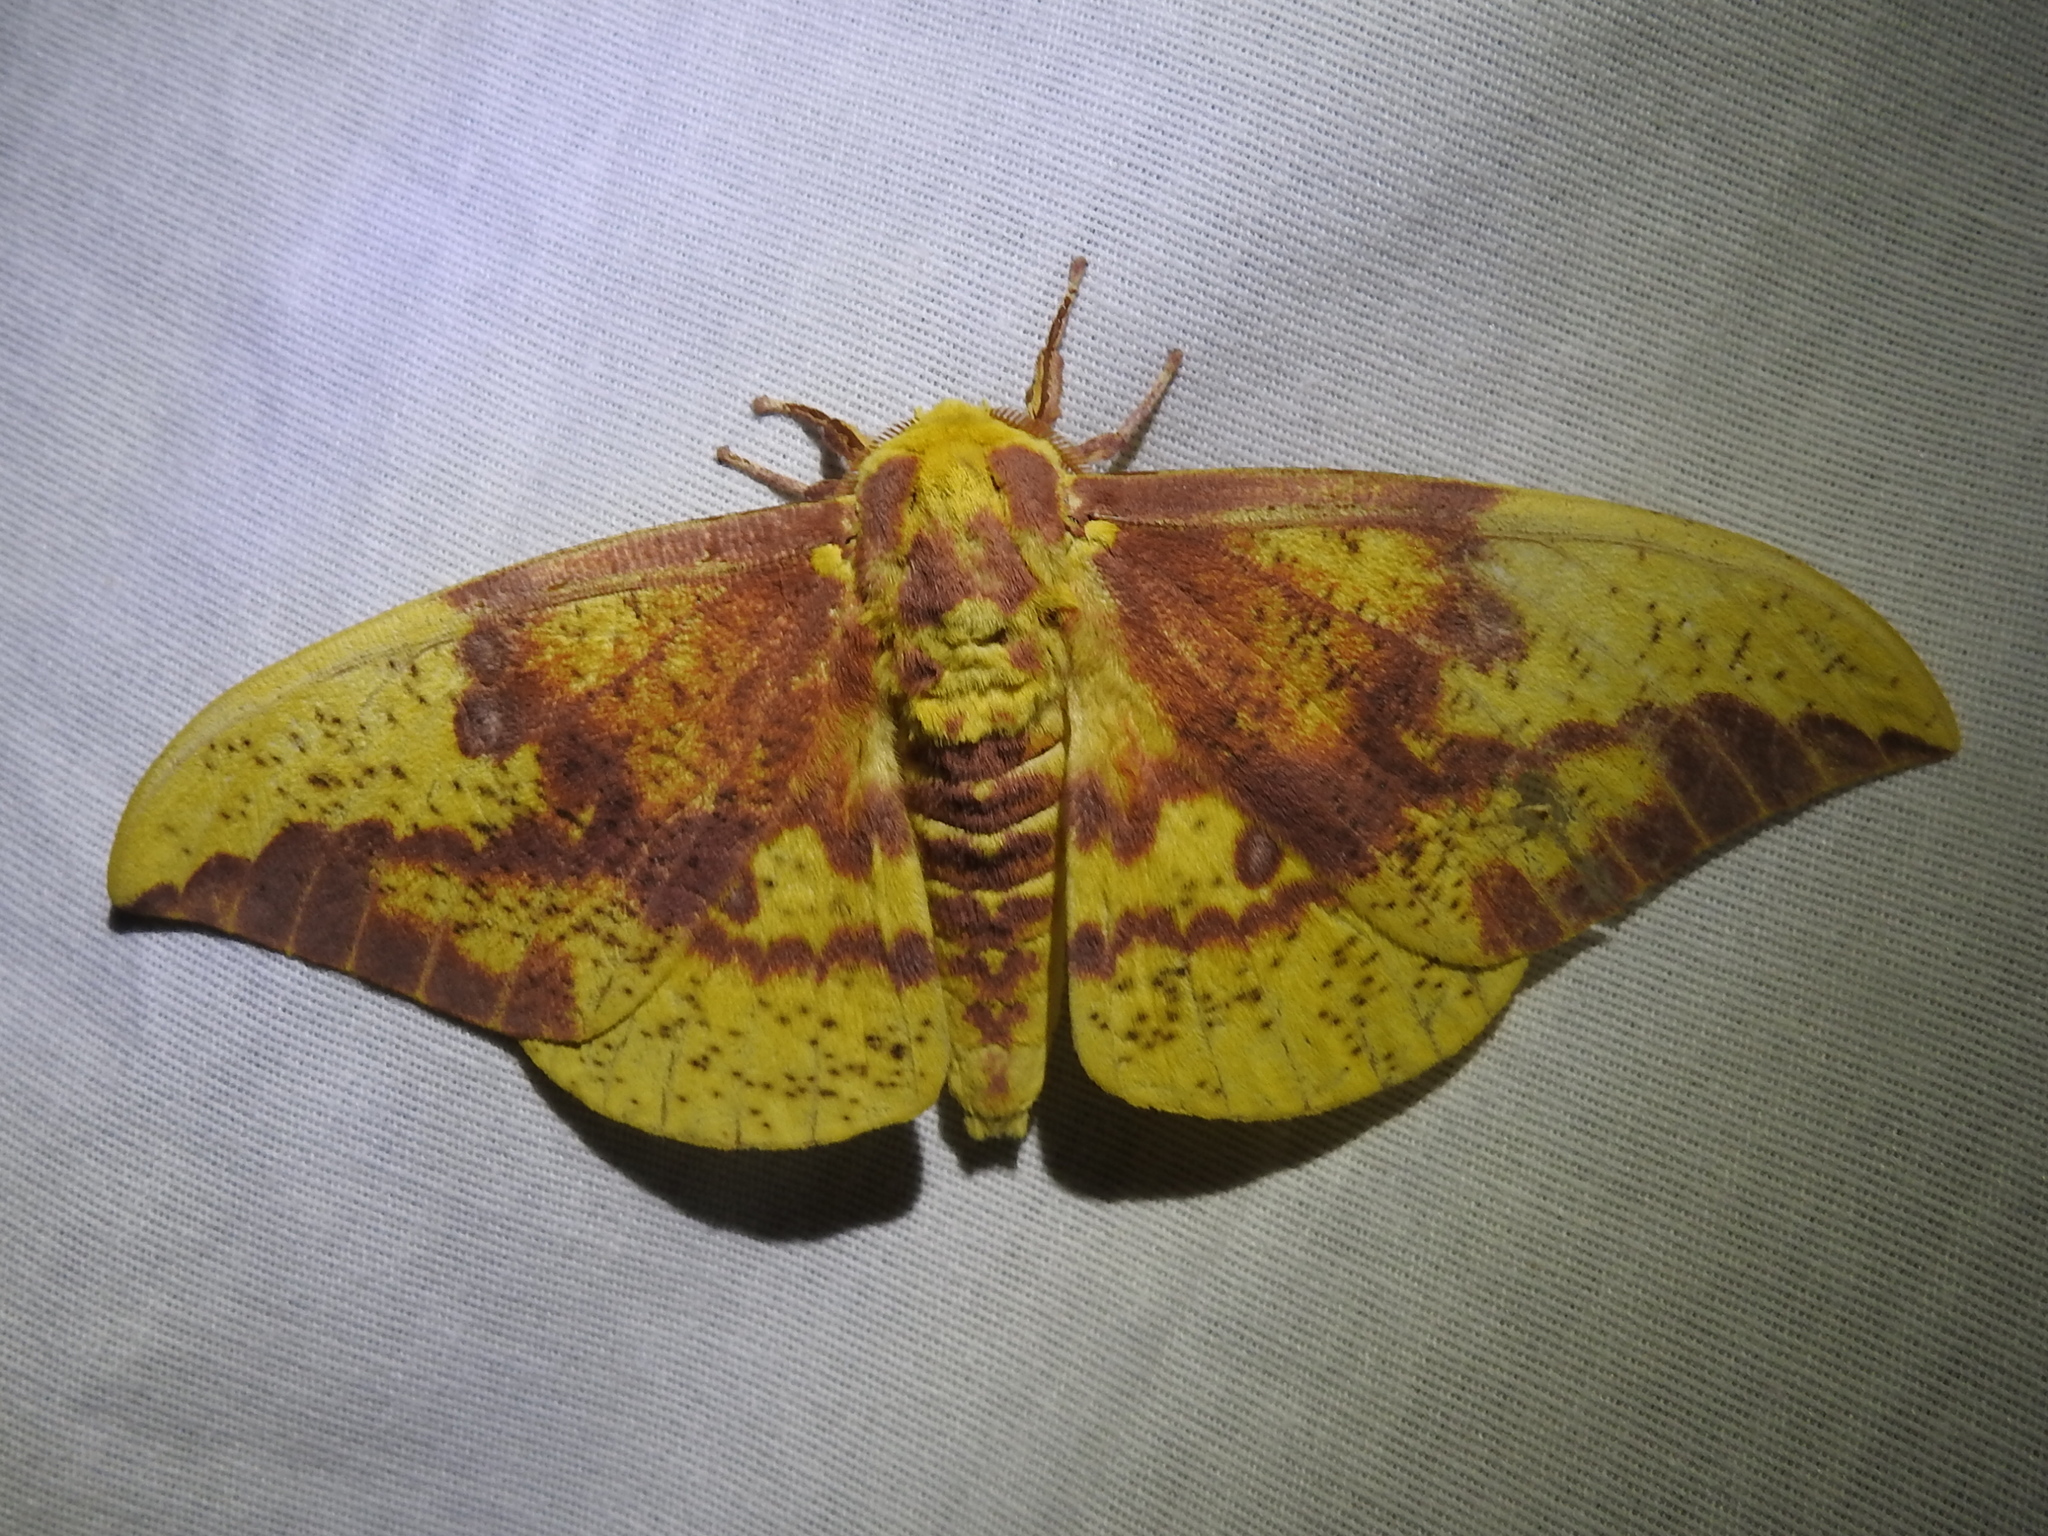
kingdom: Animalia
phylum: Arthropoda
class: Insecta
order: Lepidoptera
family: Saturniidae
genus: Eacles
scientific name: Eacles imperialis
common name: Imperial moth
